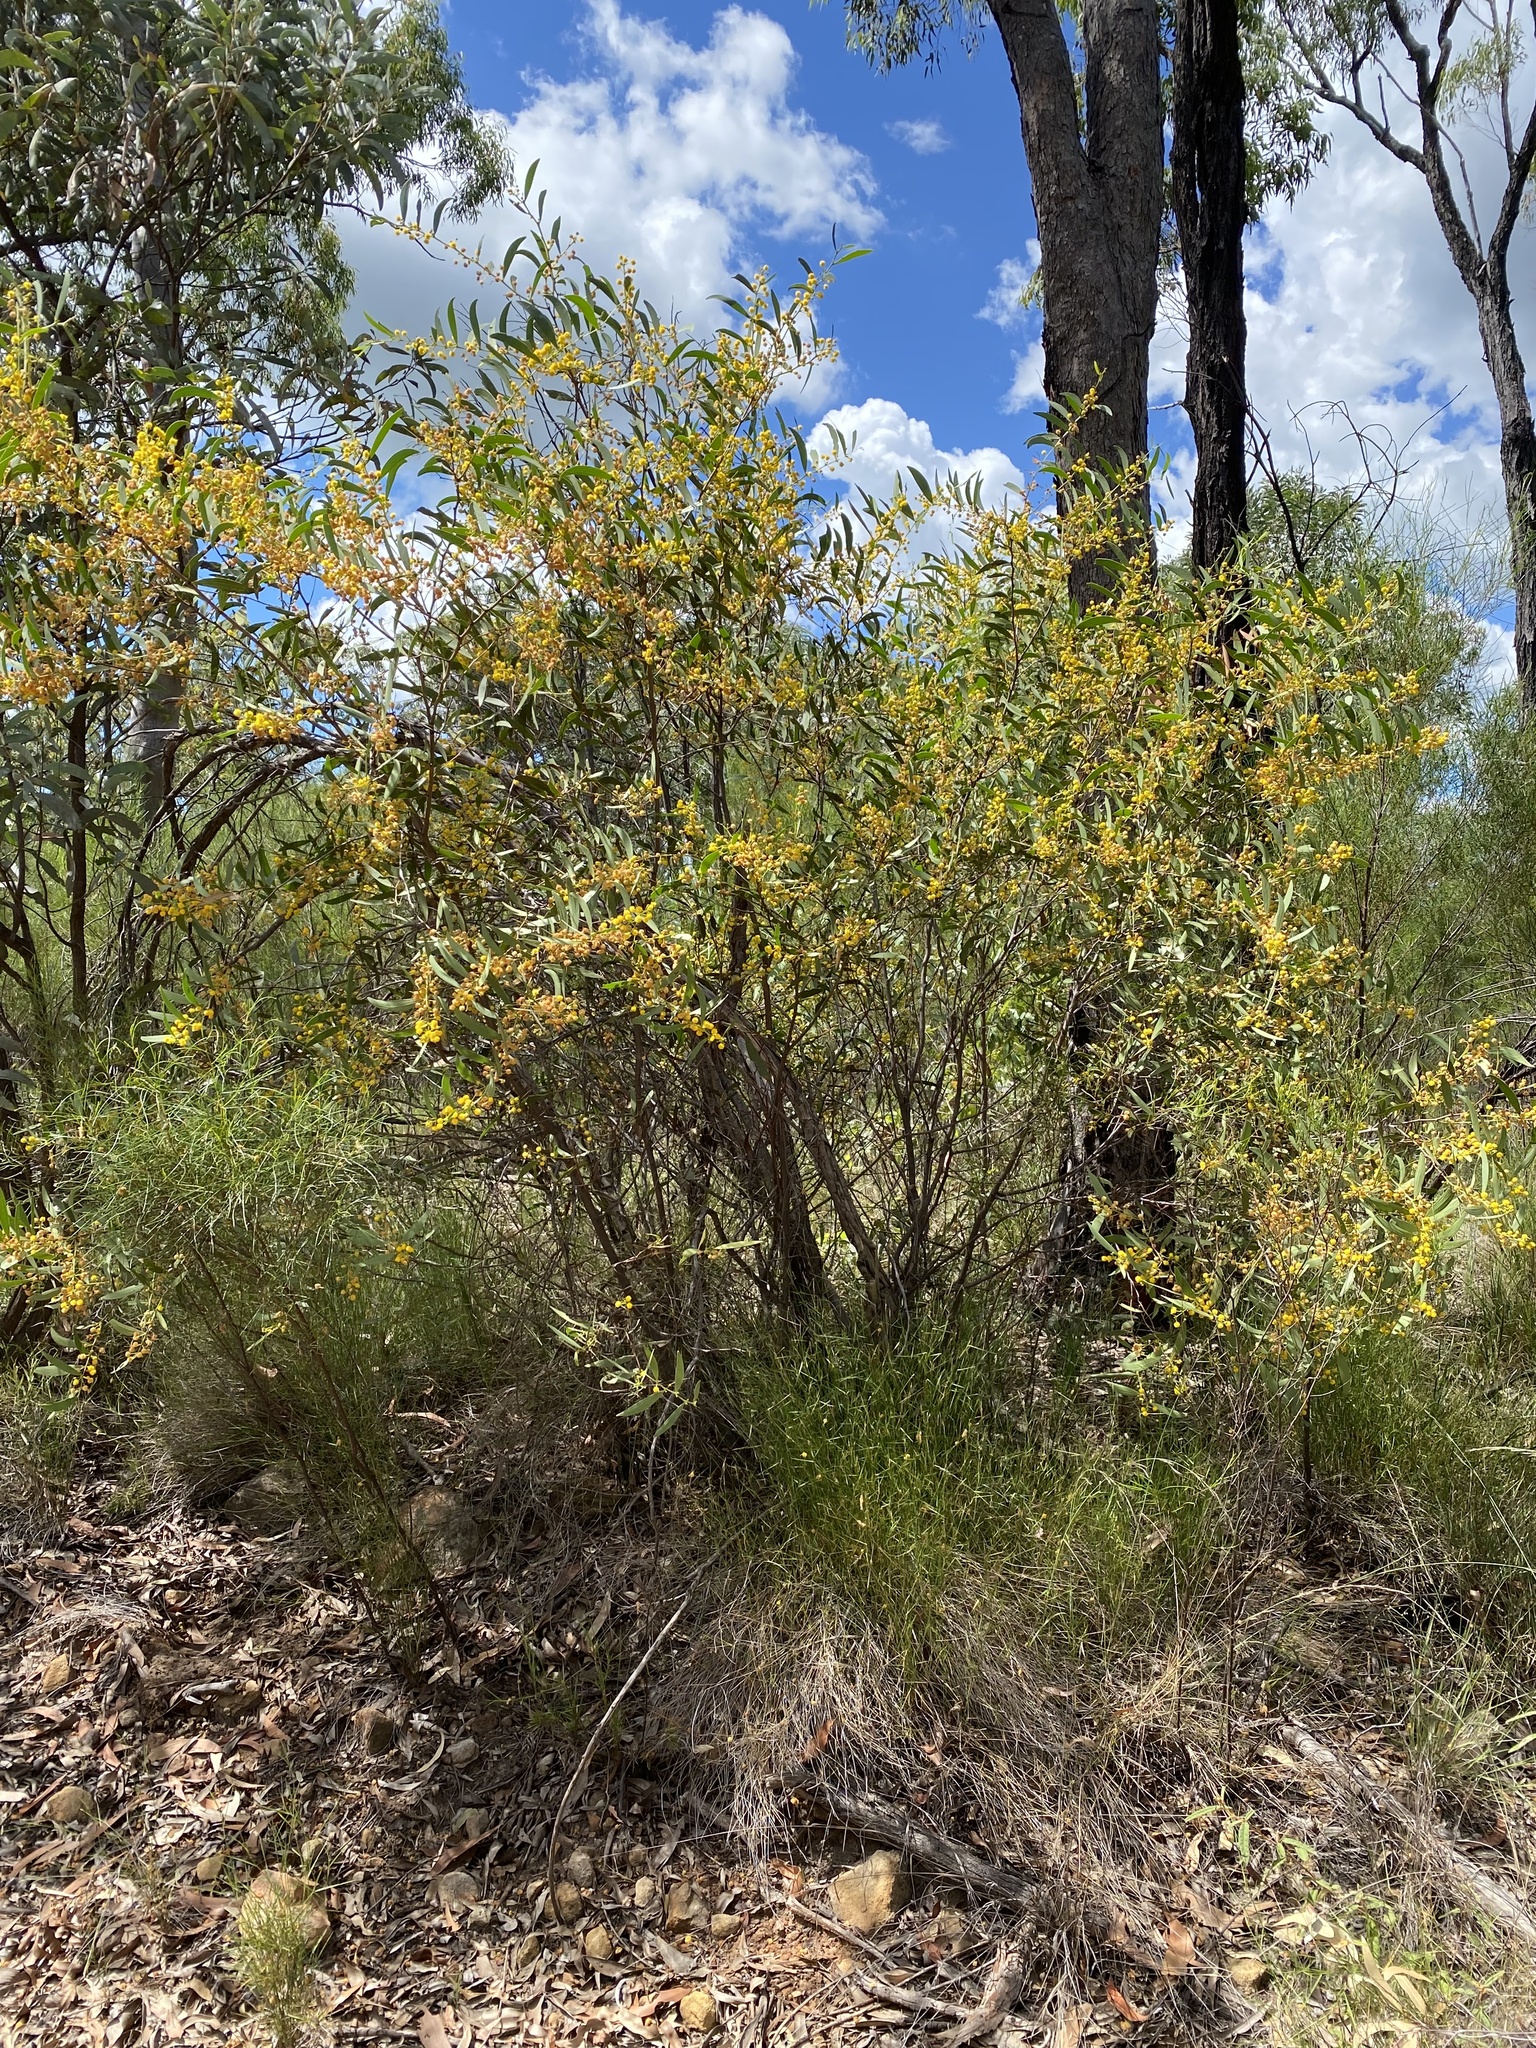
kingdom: Plantae
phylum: Tracheophyta
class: Magnoliopsida
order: Fabales
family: Fabaceae
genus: Acacia
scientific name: Acacia complanata
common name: Flat-stemmed wattle
